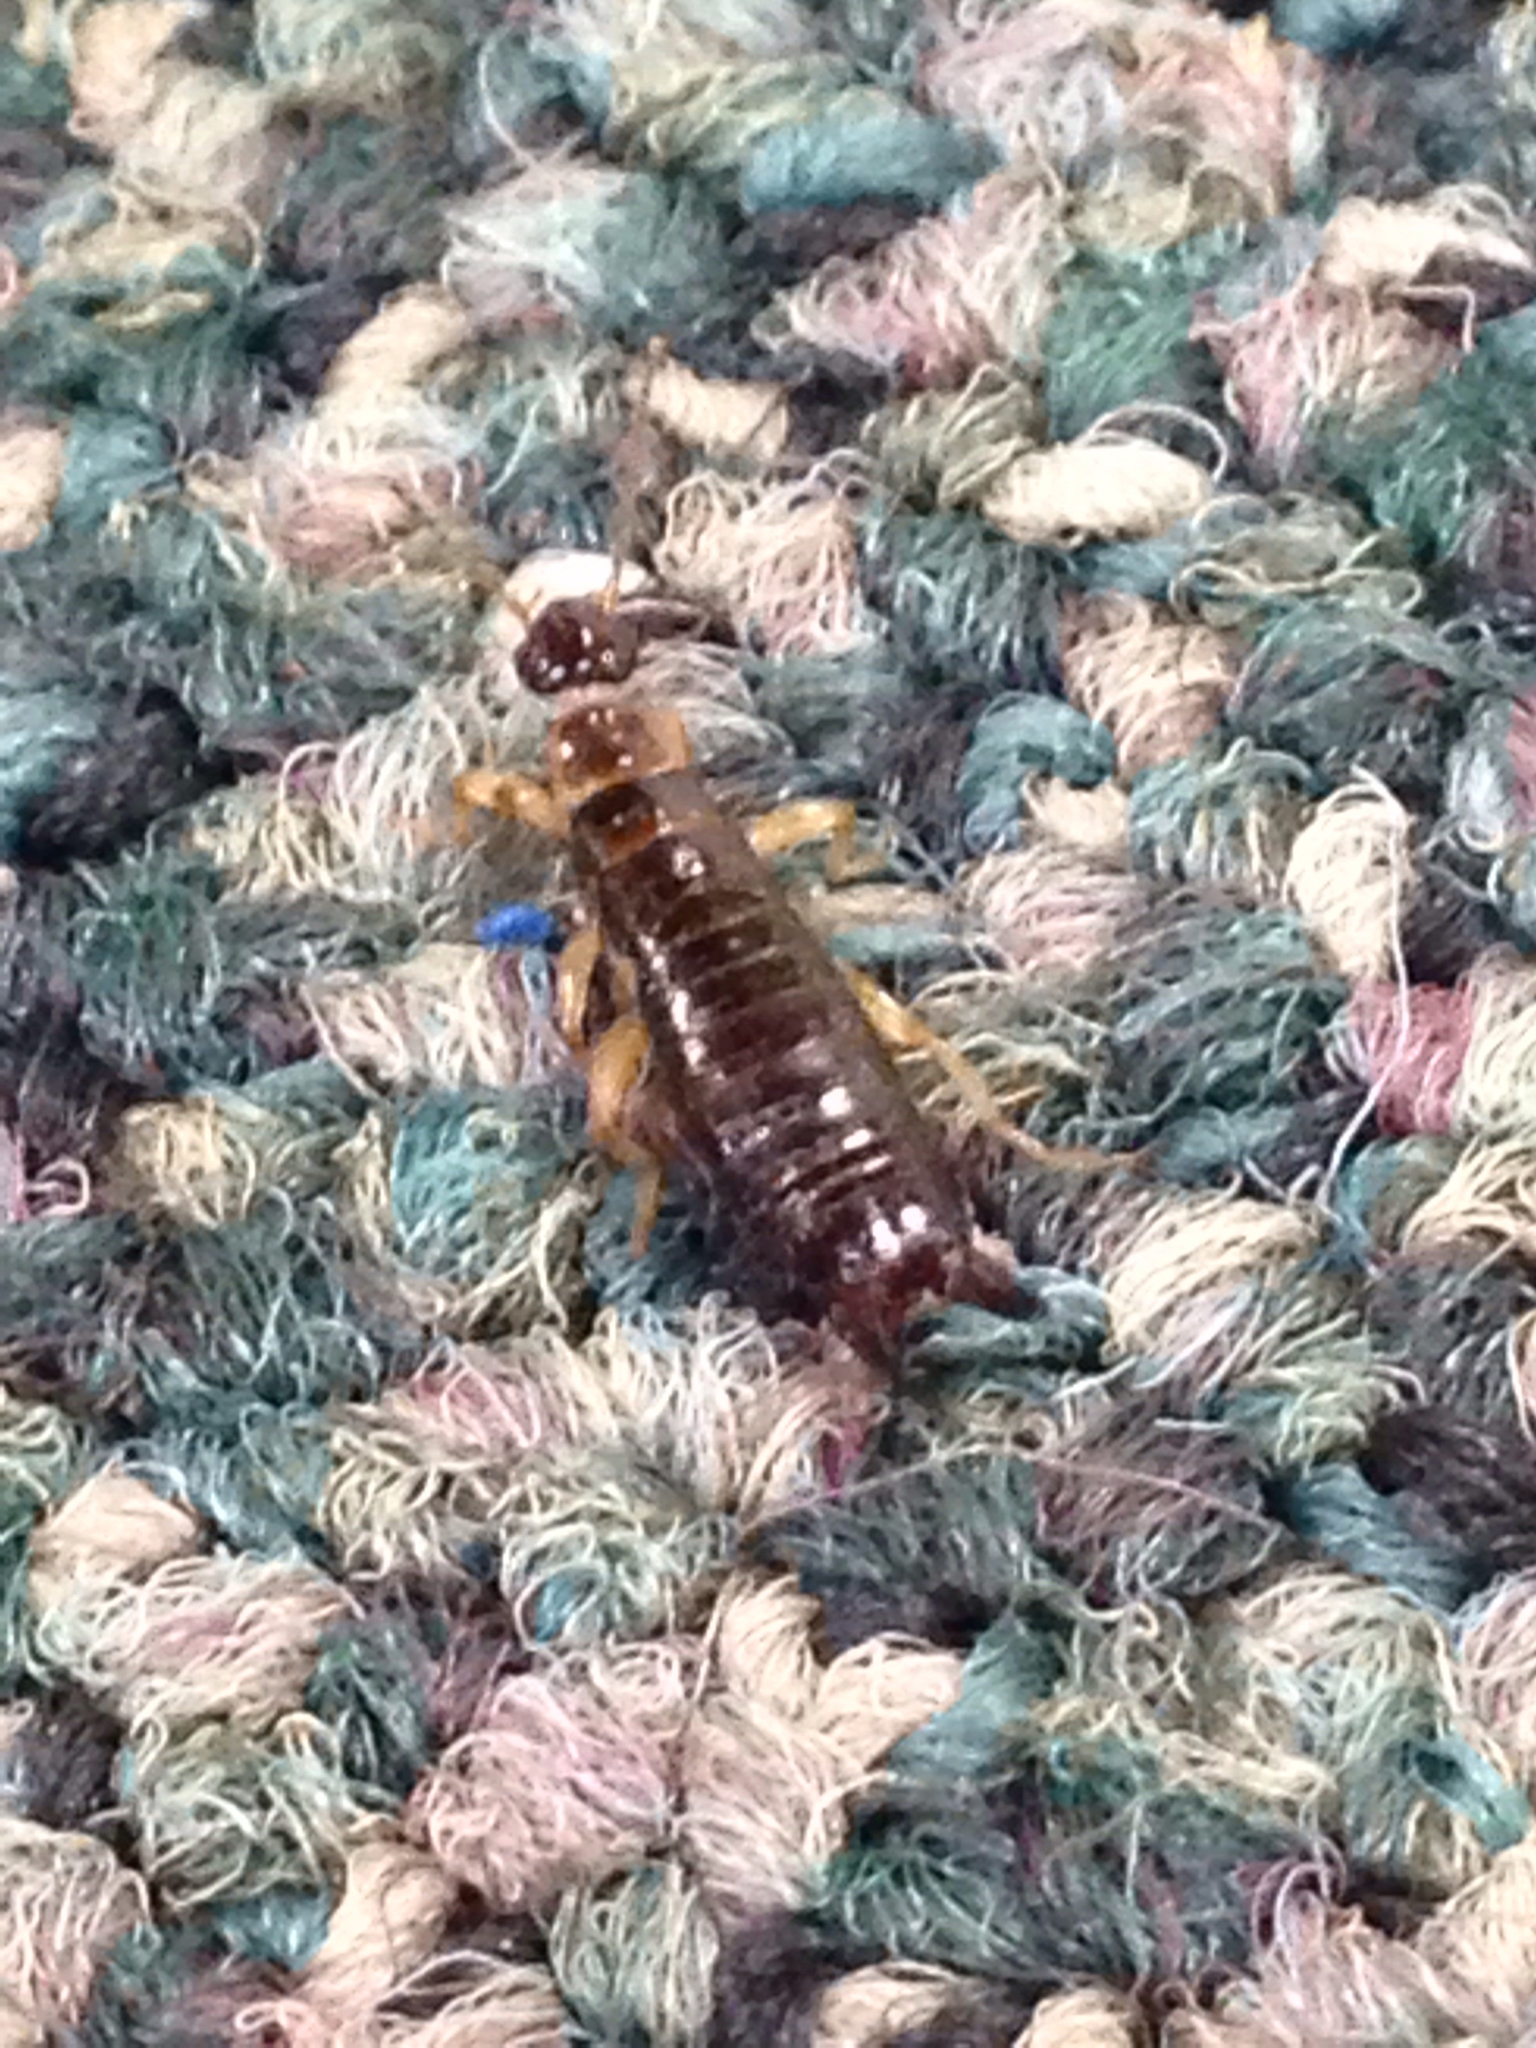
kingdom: Animalia
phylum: Arthropoda
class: Insecta
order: Dermaptera
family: Anisolabididae
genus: Euborellia
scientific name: Euborellia annulipes
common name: Ringlegged earwig
